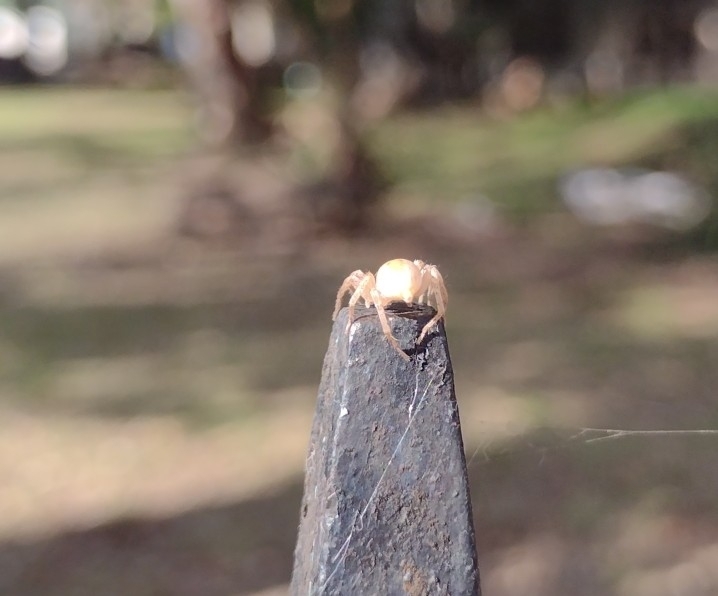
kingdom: Animalia
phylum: Arthropoda
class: Arachnida
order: Araneae
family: Anyphaenidae
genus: Arachosia
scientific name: Arachosia praesignis
